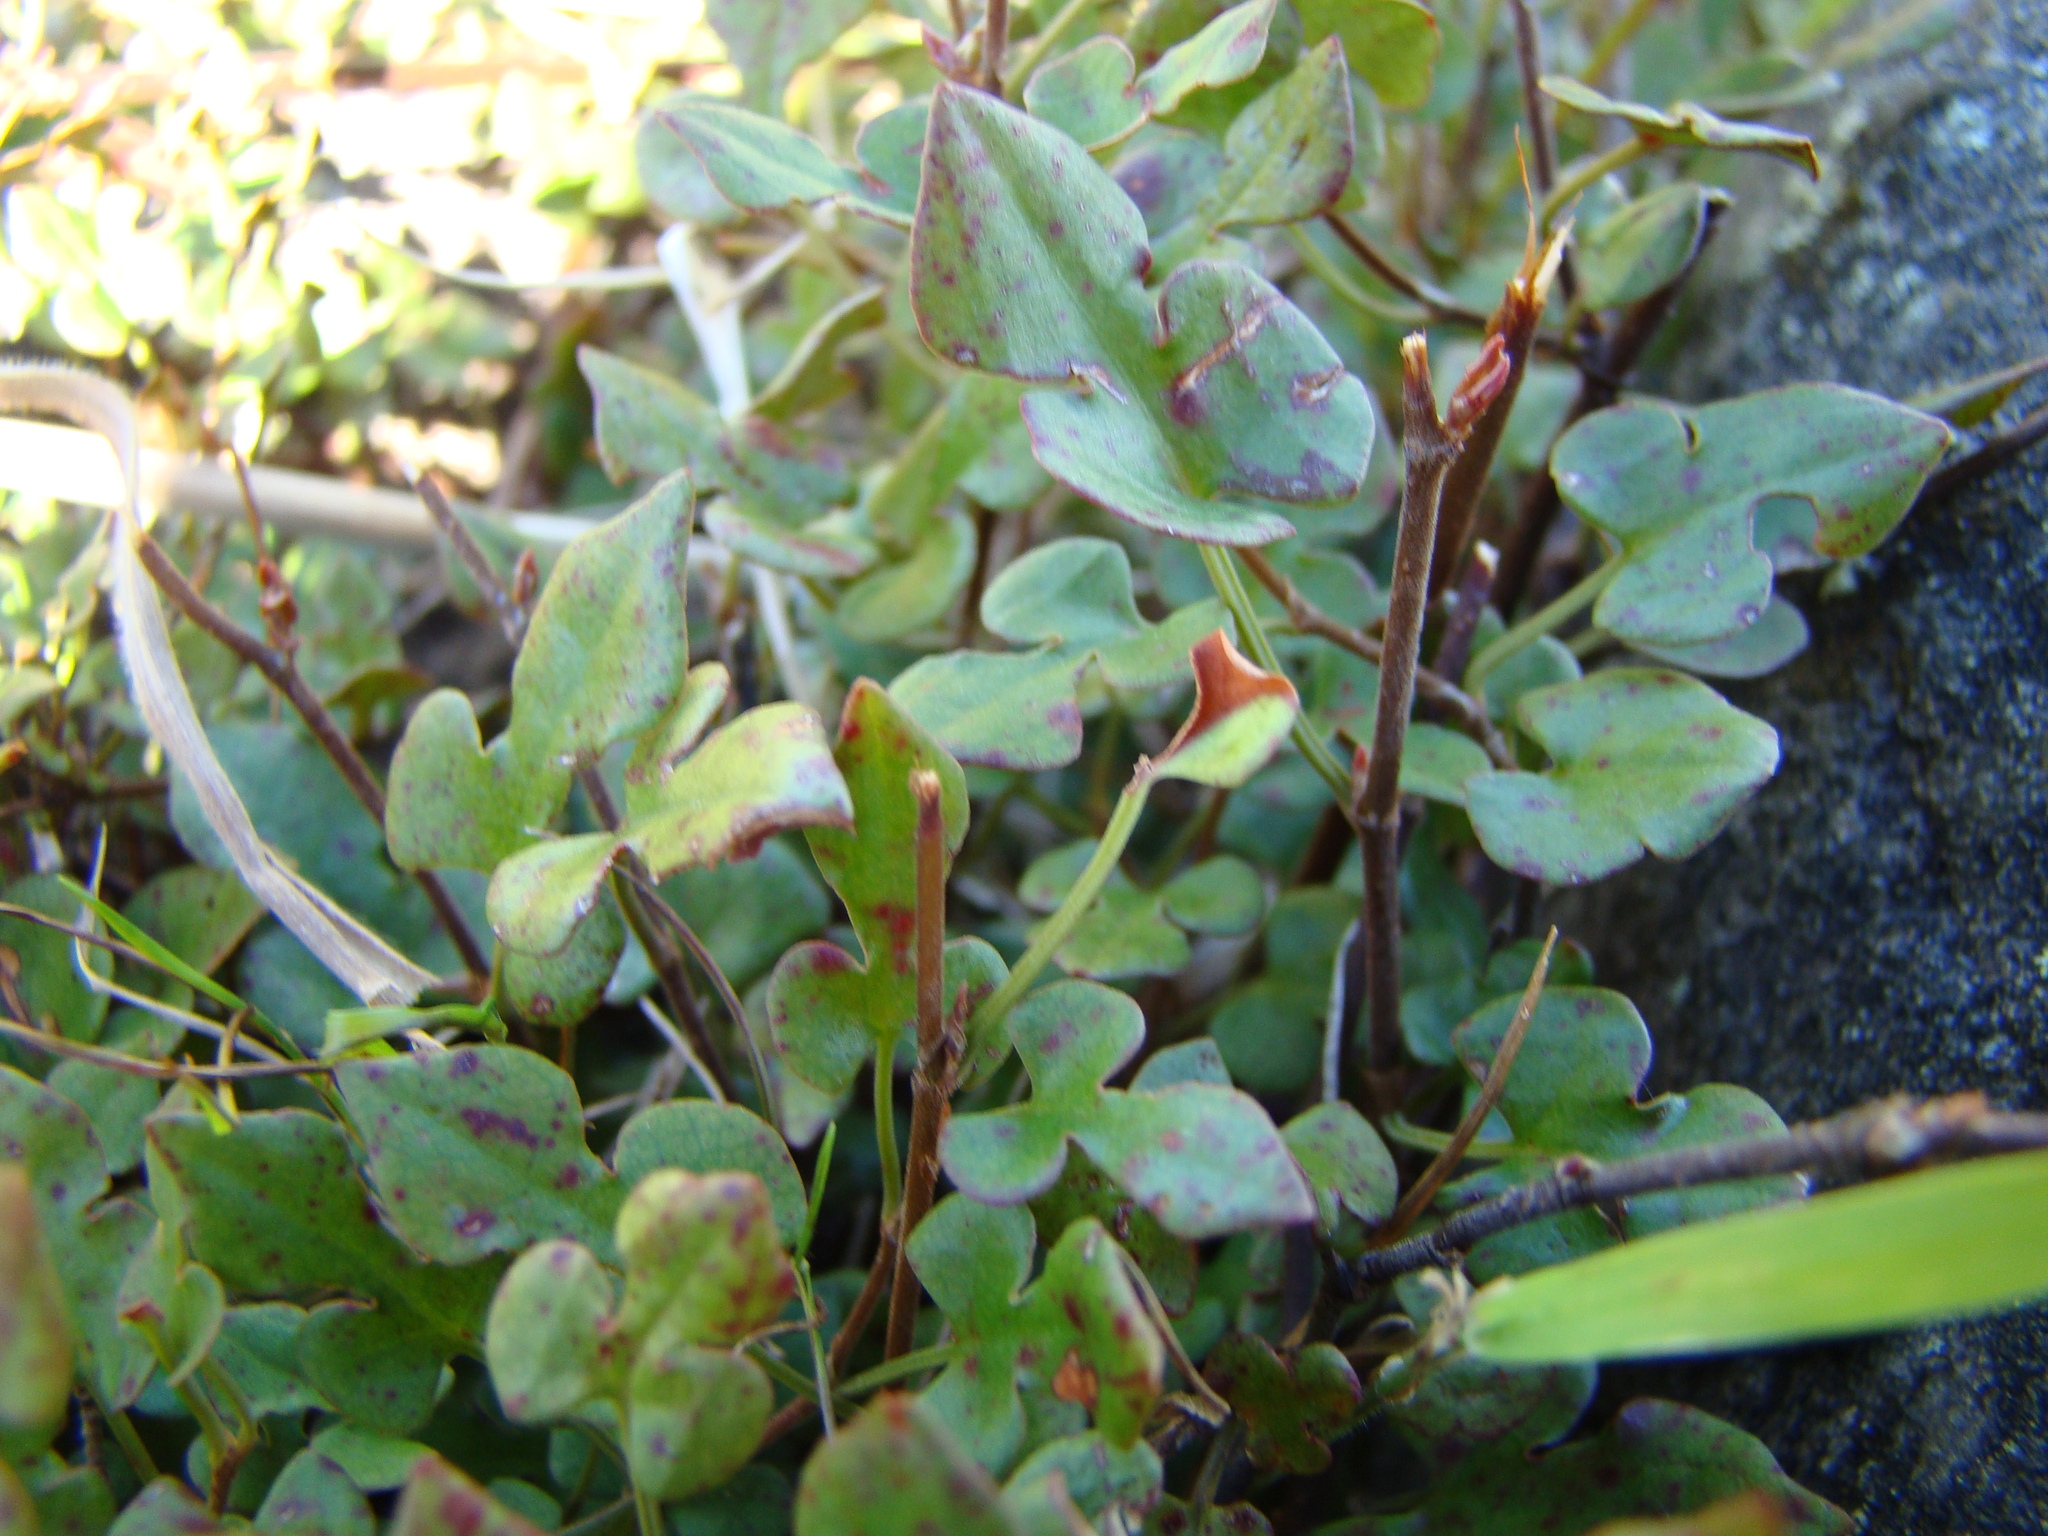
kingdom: Plantae
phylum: Tracheophyta
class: Magnoliopsida
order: Caryophyllales
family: Polygonaceae
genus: Muehlenbeckia
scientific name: Muehlenbeckia australis
